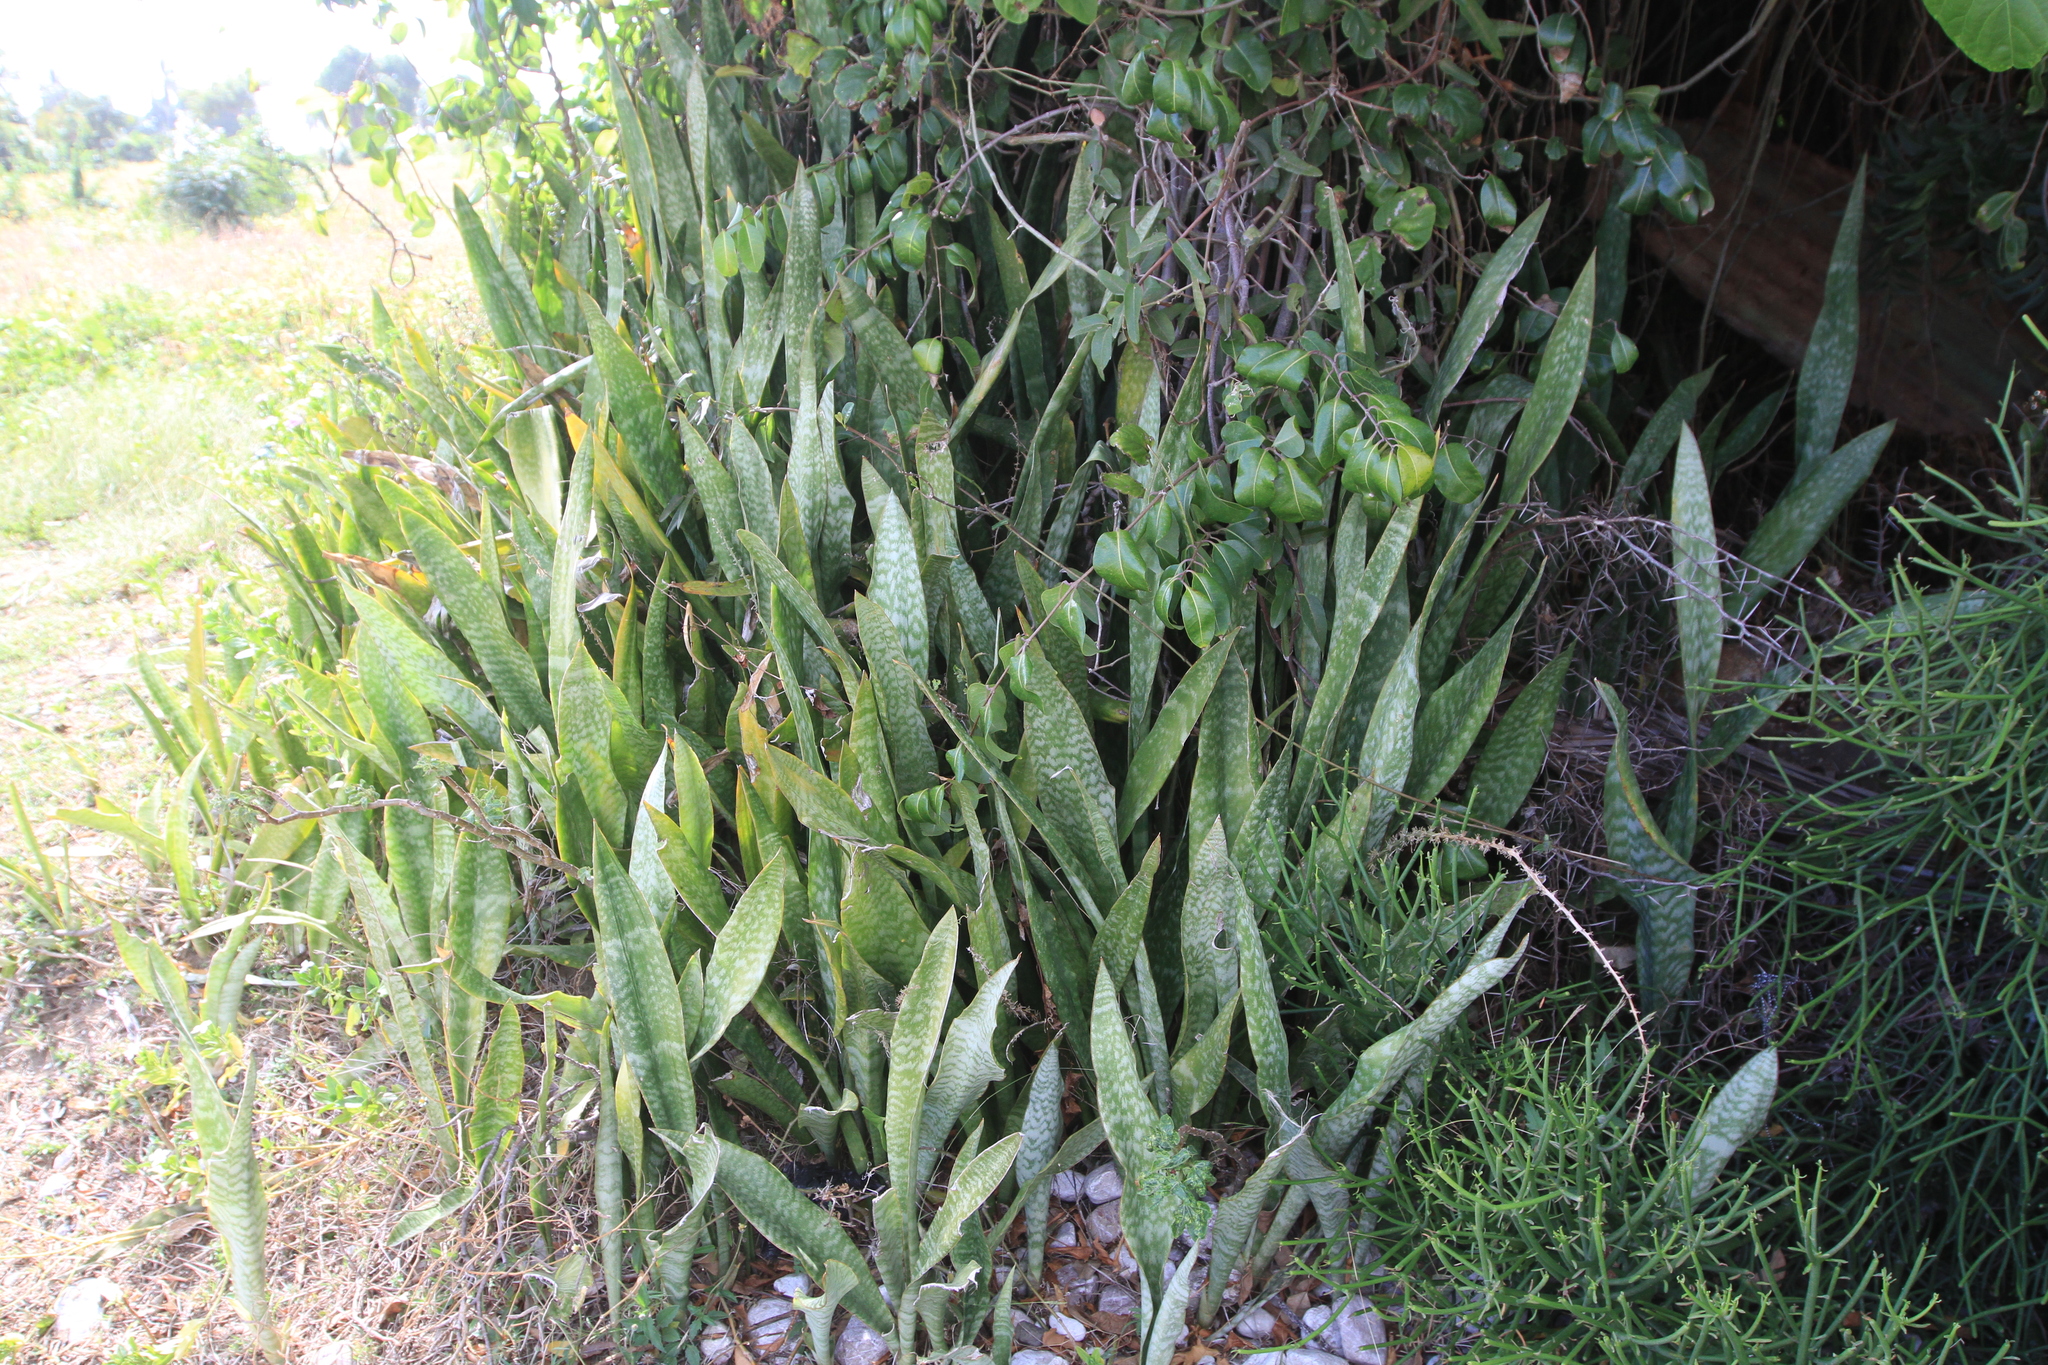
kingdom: Plantae
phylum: Tracheophyta
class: Liliopsida
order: Asparagales
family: Asparagaceae
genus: Dracaena
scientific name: Dracaena hyacinthoides
